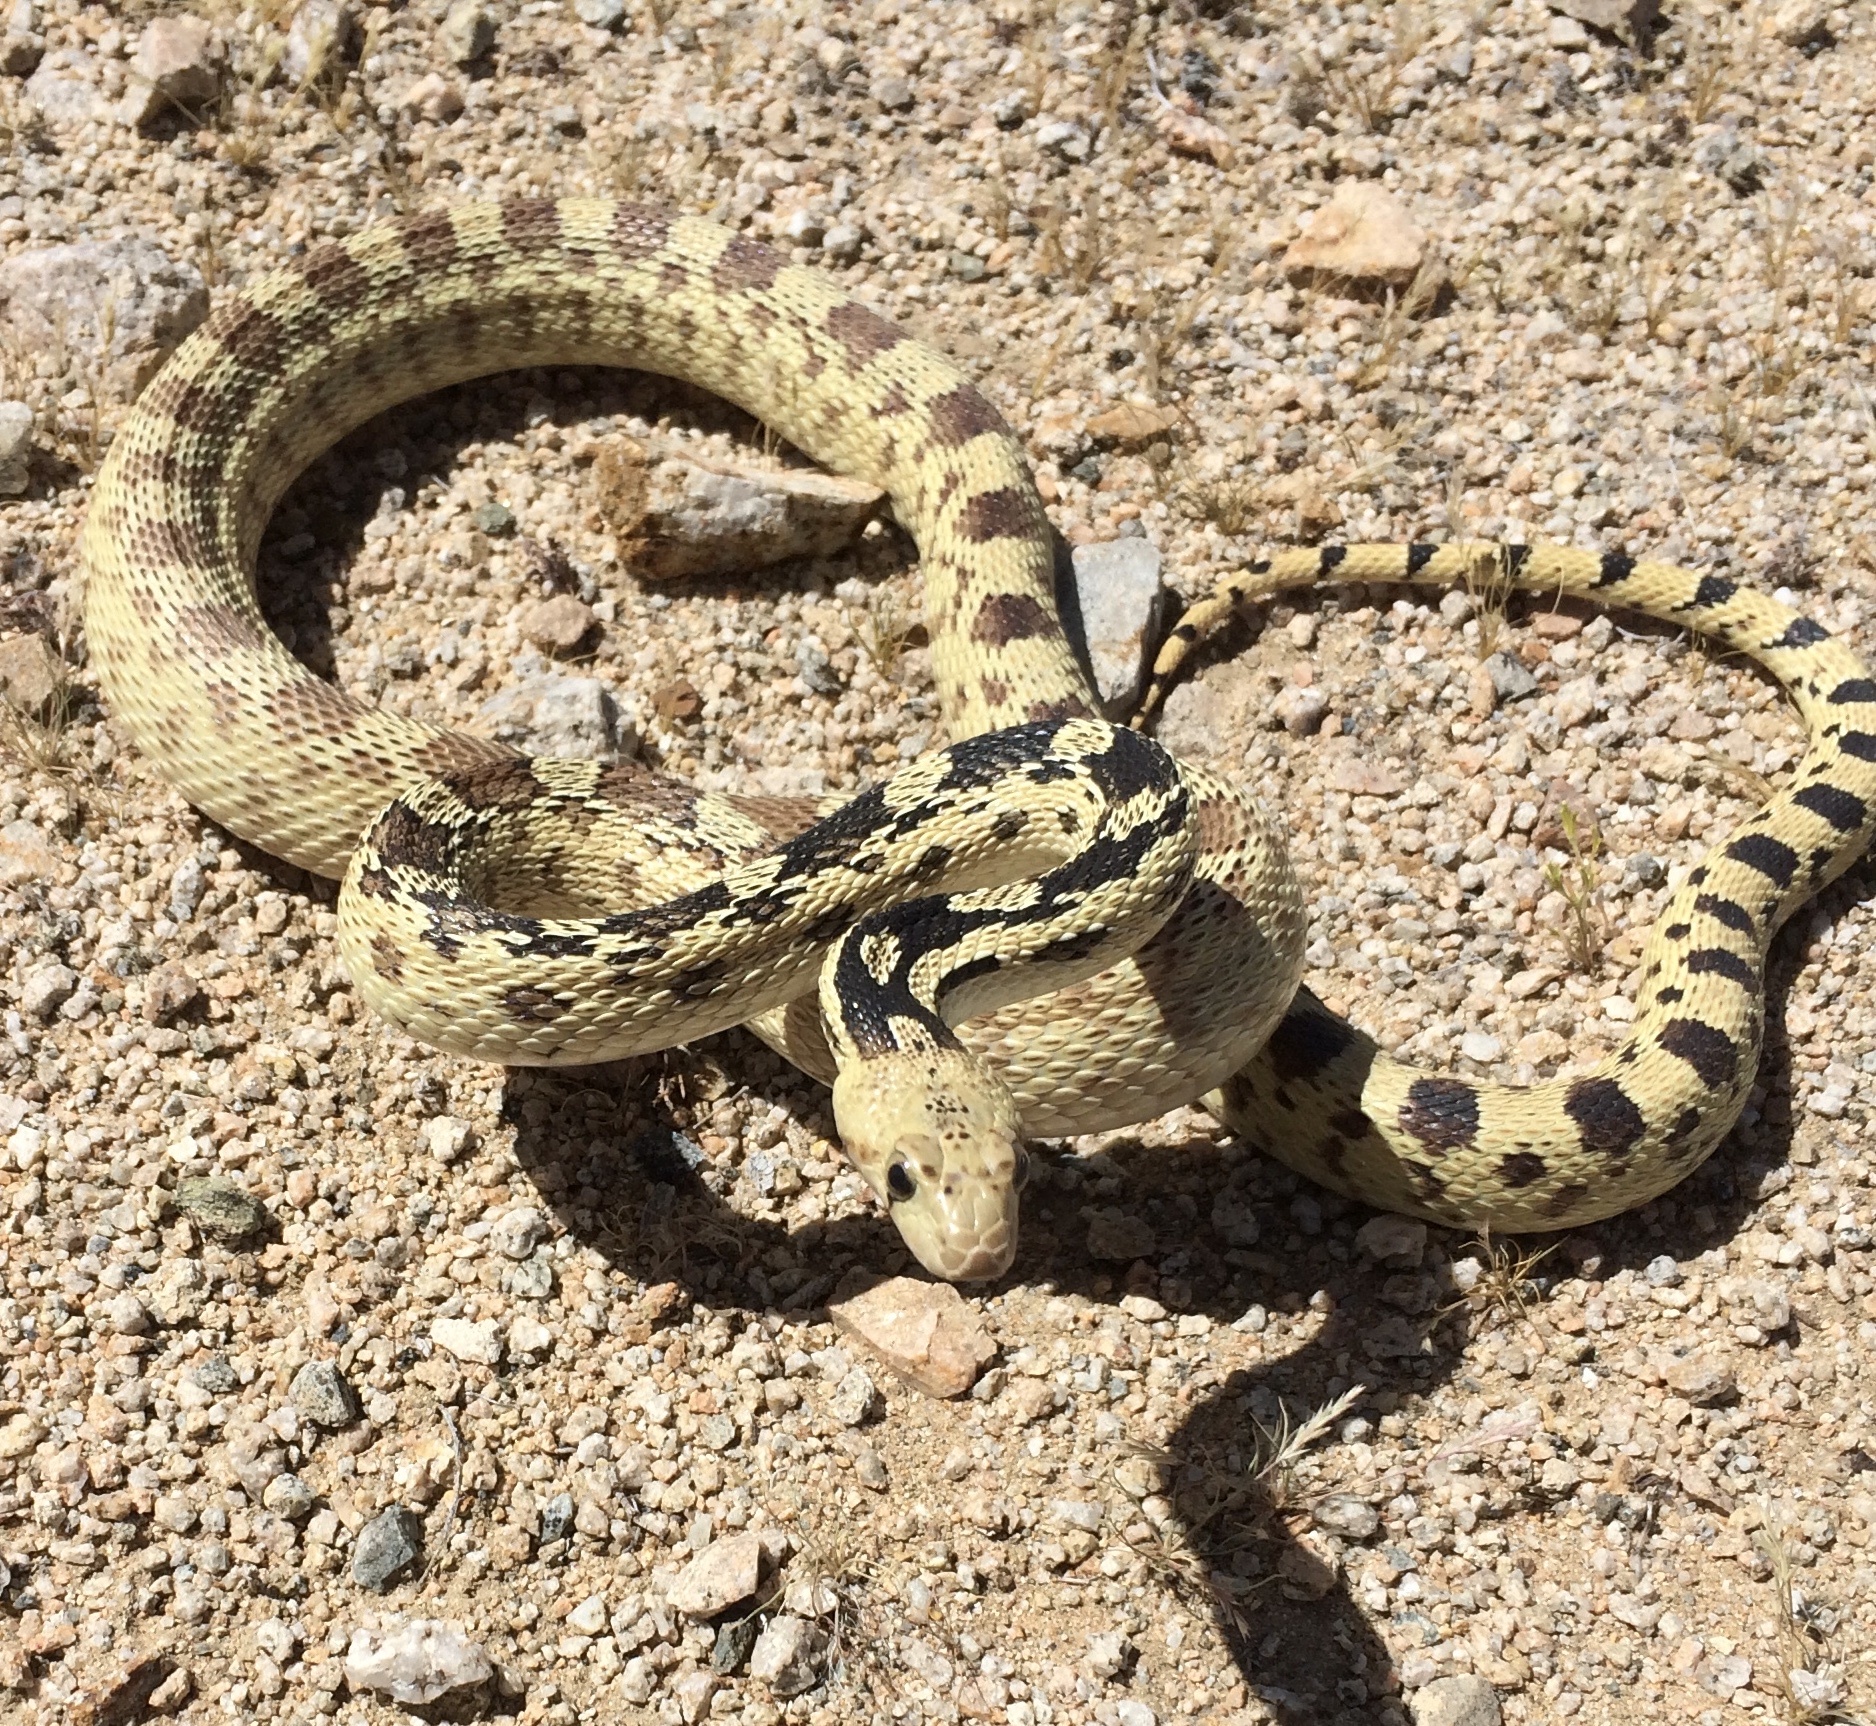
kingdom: Animalia
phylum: Chordata
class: Squamata
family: Colubridae
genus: Pituophis
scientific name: Pituophis catenifer
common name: Gopher snake
